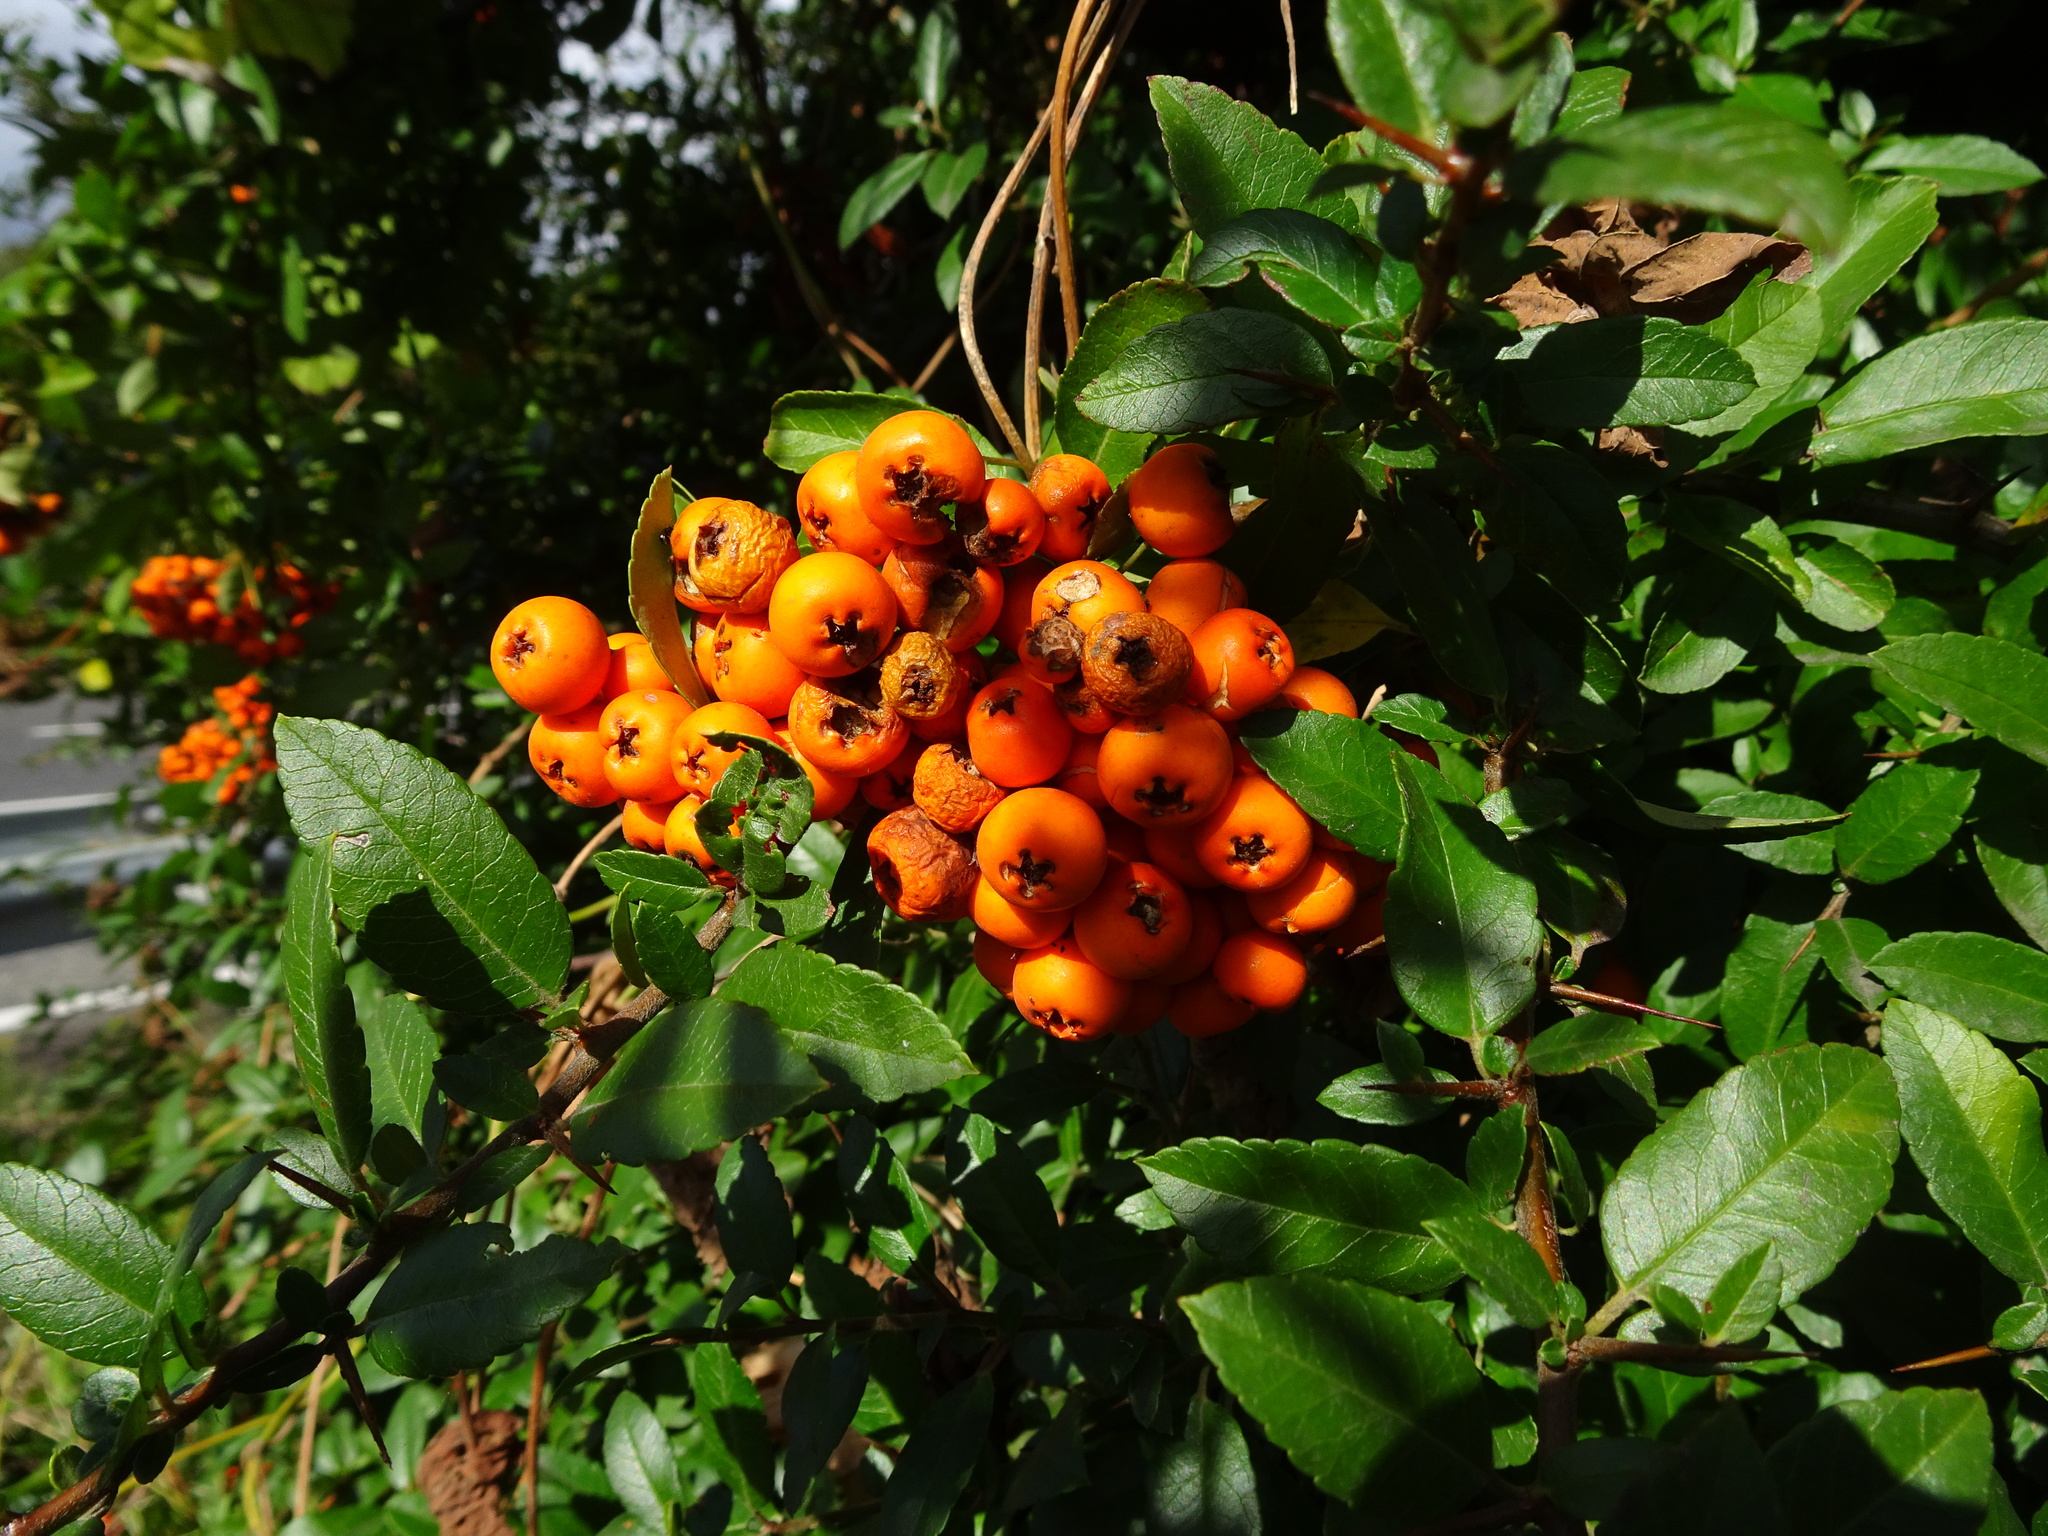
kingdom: Plantae
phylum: Tracheophyta
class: Magnoliopsida
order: Rosales
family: Rosaceae
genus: Pyracantha
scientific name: Pyracantha coccinea
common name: Firethorn
